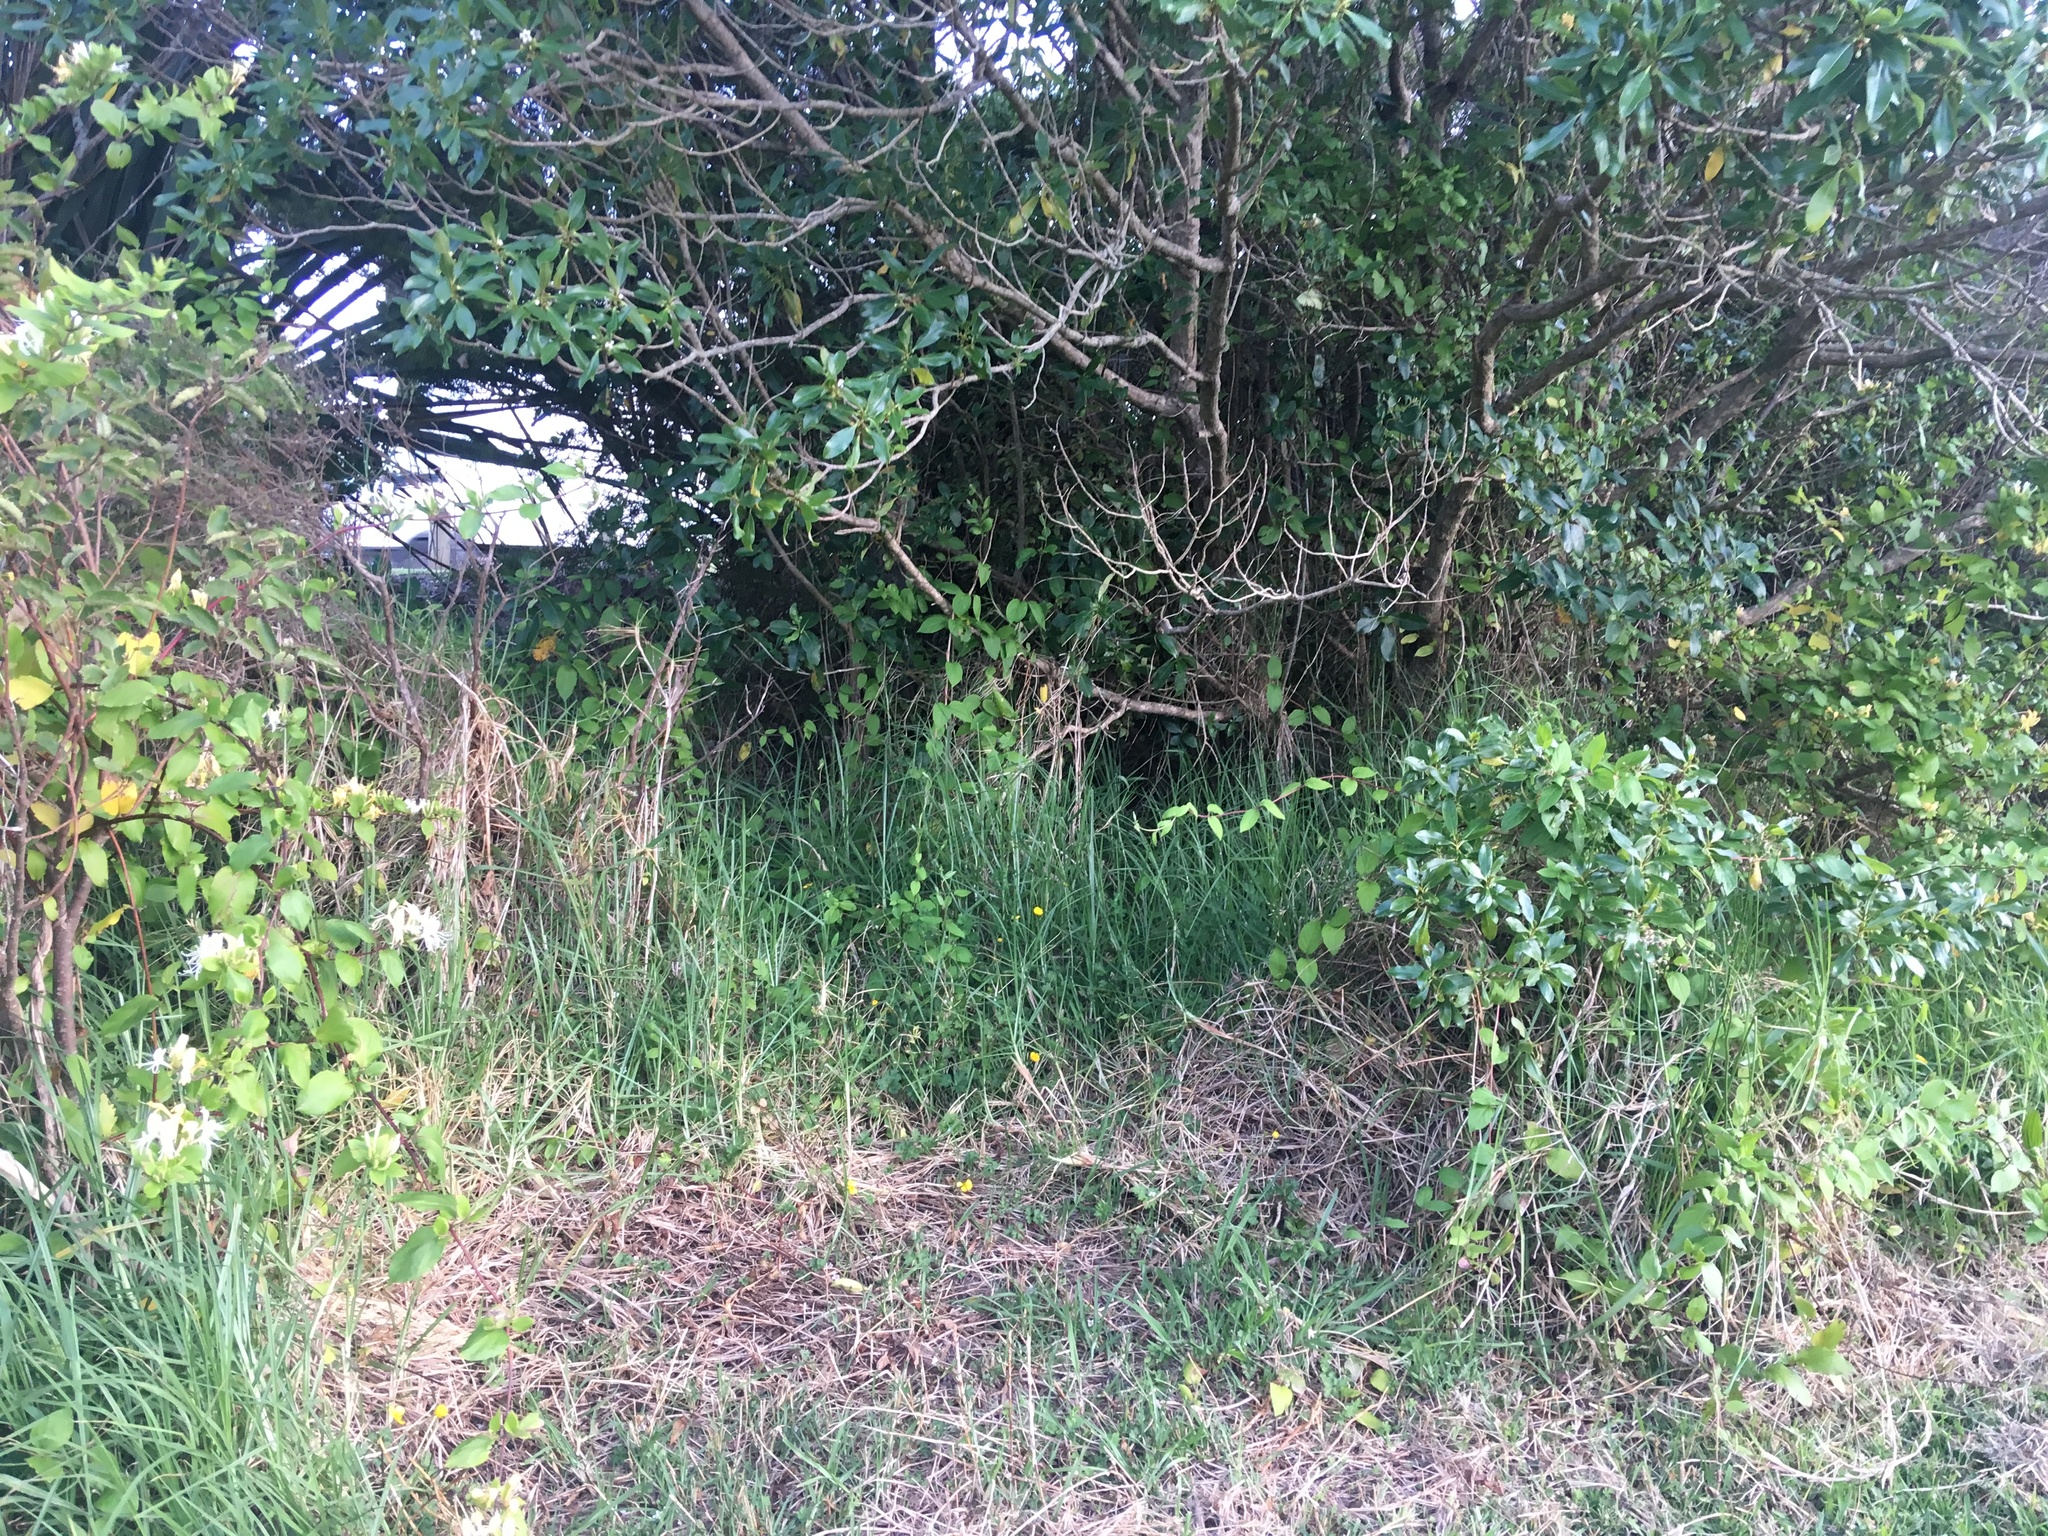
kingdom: Plantae
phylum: Tracheophyta
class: Liliopsida
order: Poales
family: Poaceae
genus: Cenchrus
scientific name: Cenchrus clandestinus
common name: Kikuyugrass
